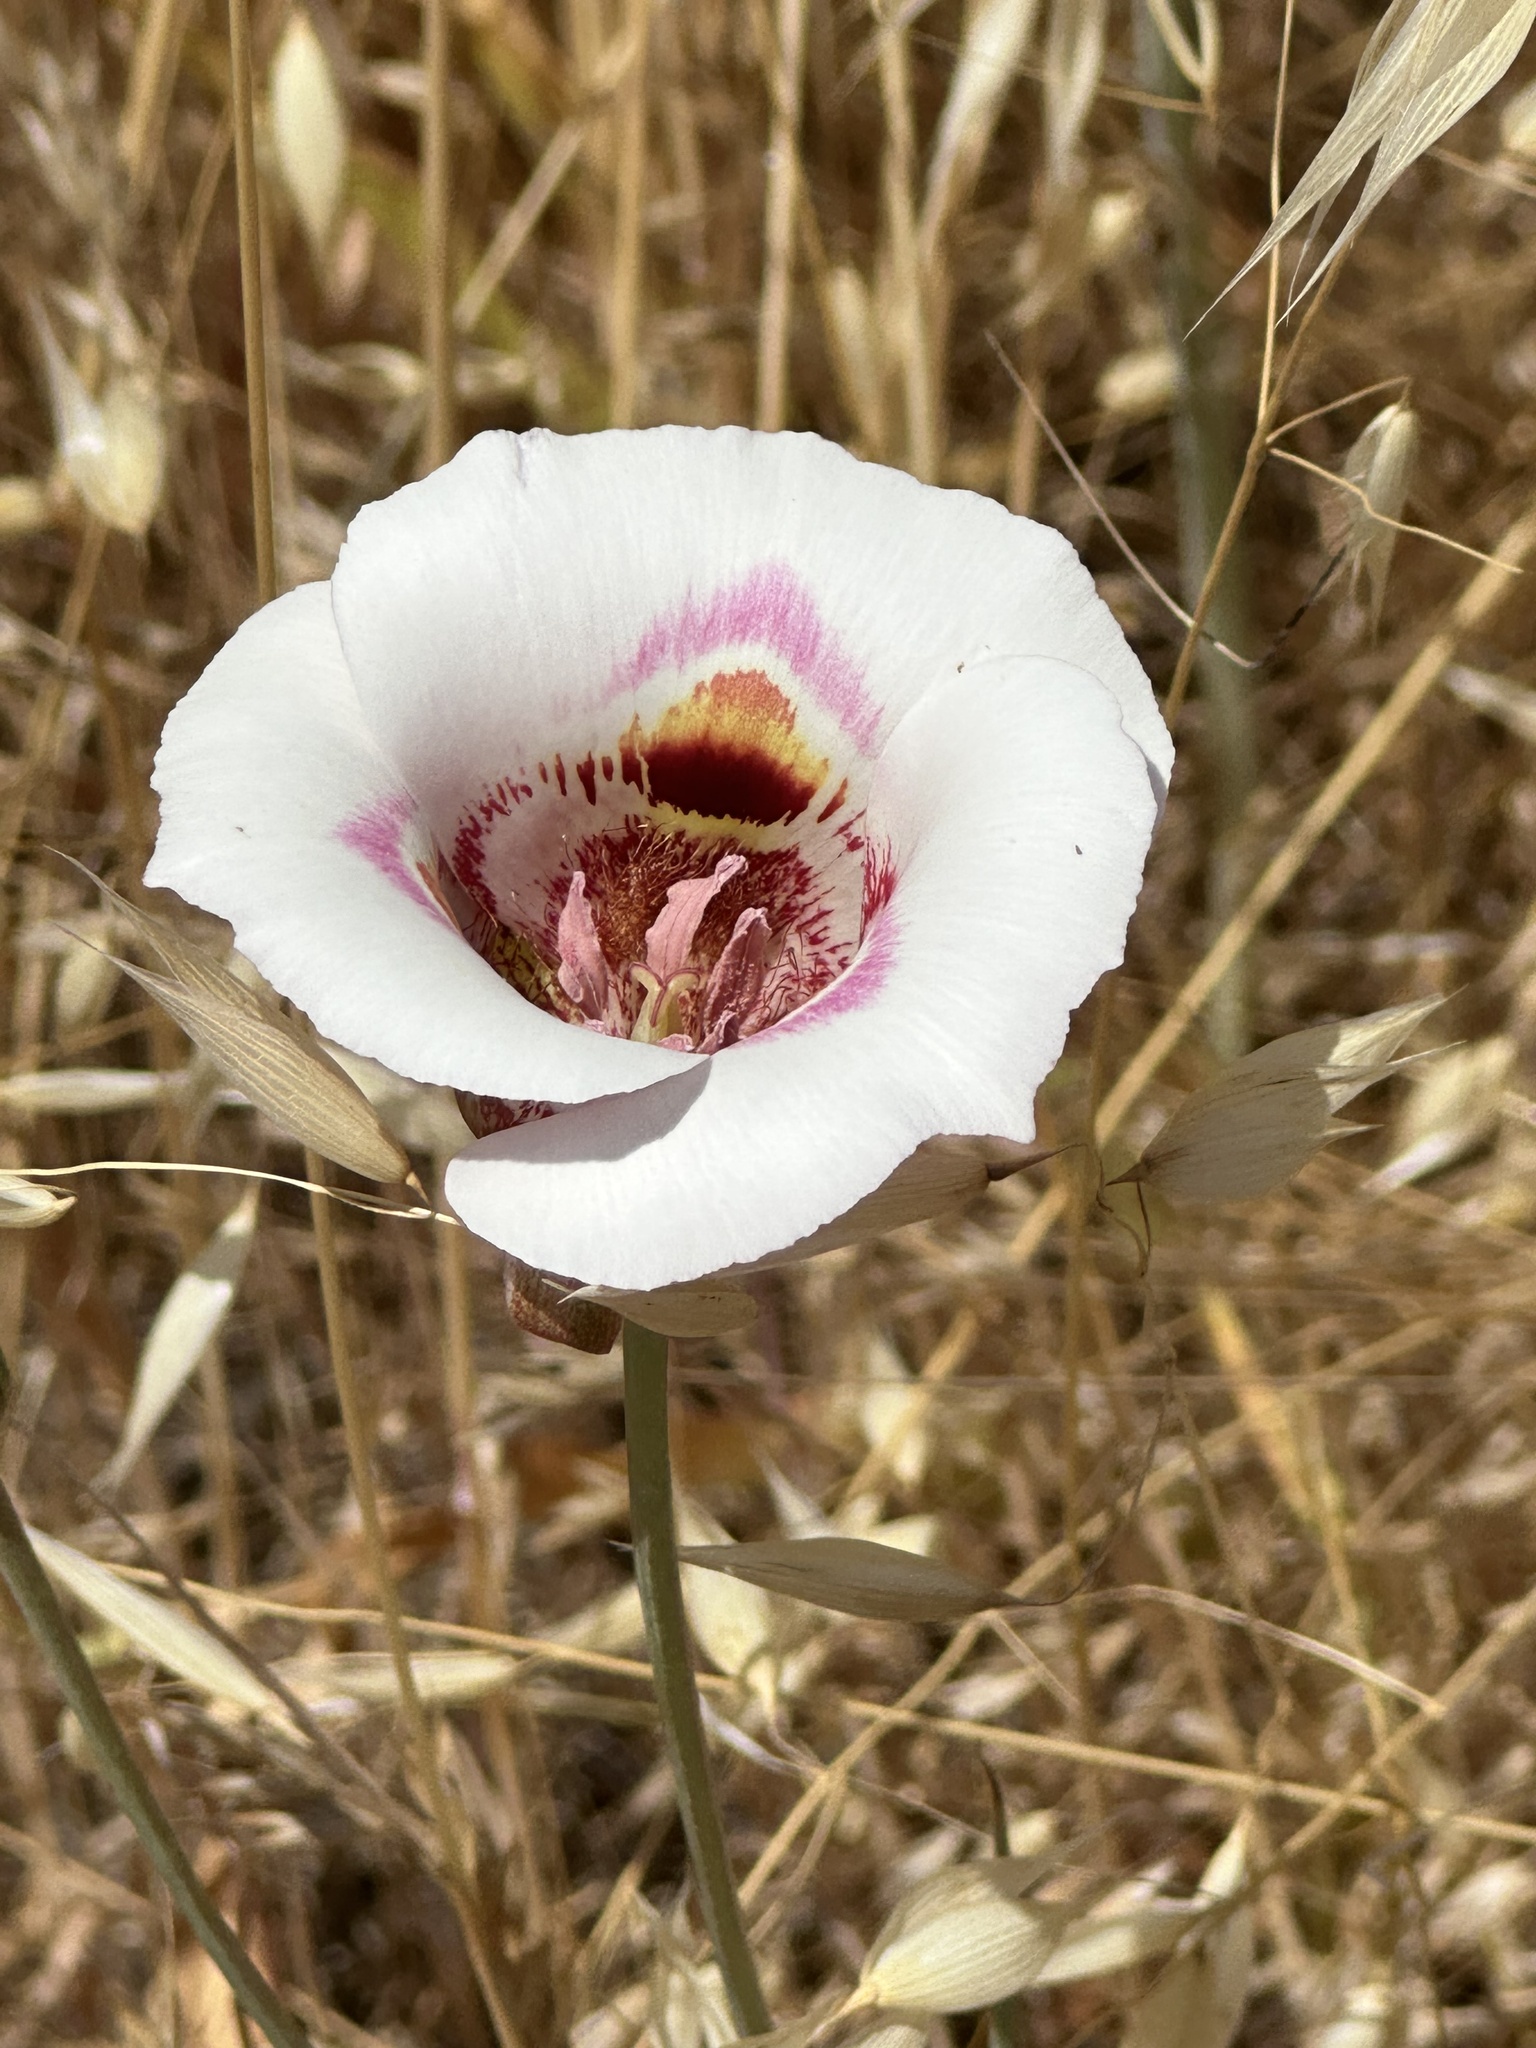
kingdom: Plantae
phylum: Tracheophyta
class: Liliopsida
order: Liliales
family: Liliaceae
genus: Calochortus
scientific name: Calochortus argillosus
